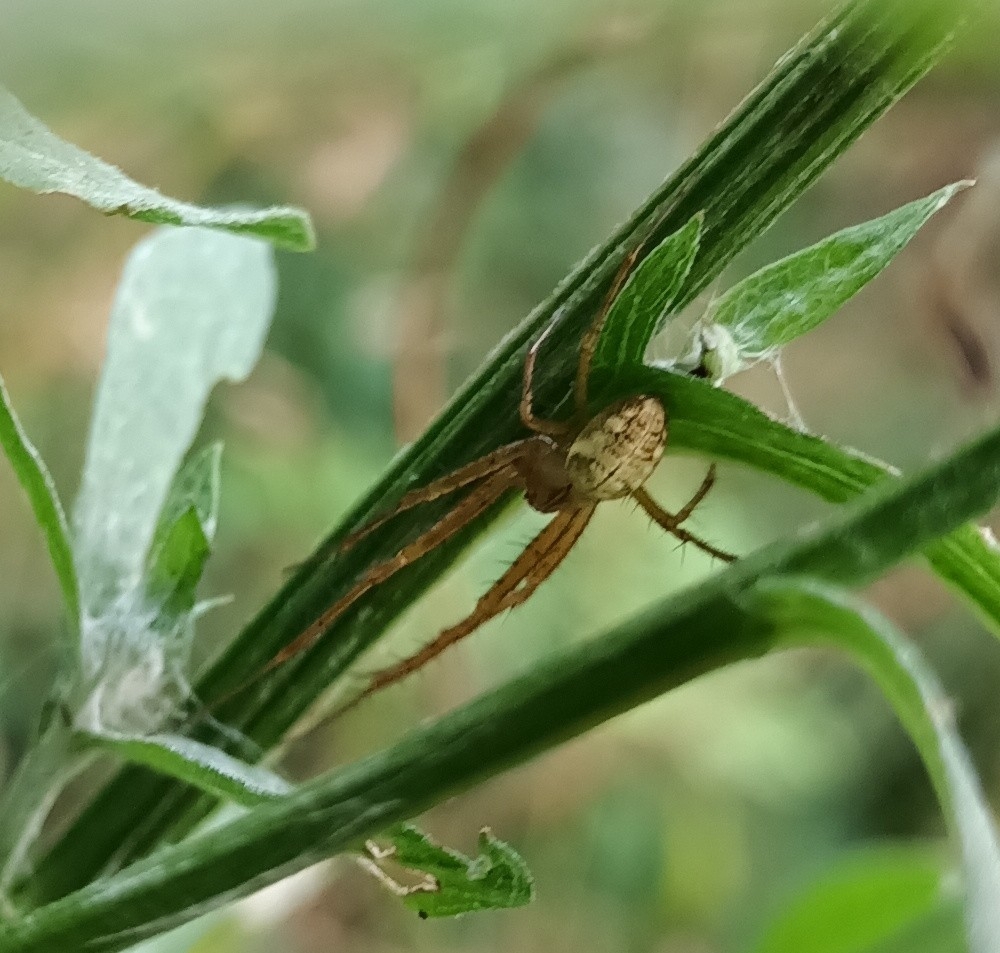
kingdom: Animalia
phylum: Arthropoda
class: Arachnida
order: Araneae
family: Tetragnathidae
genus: Metellina
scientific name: Metellina
